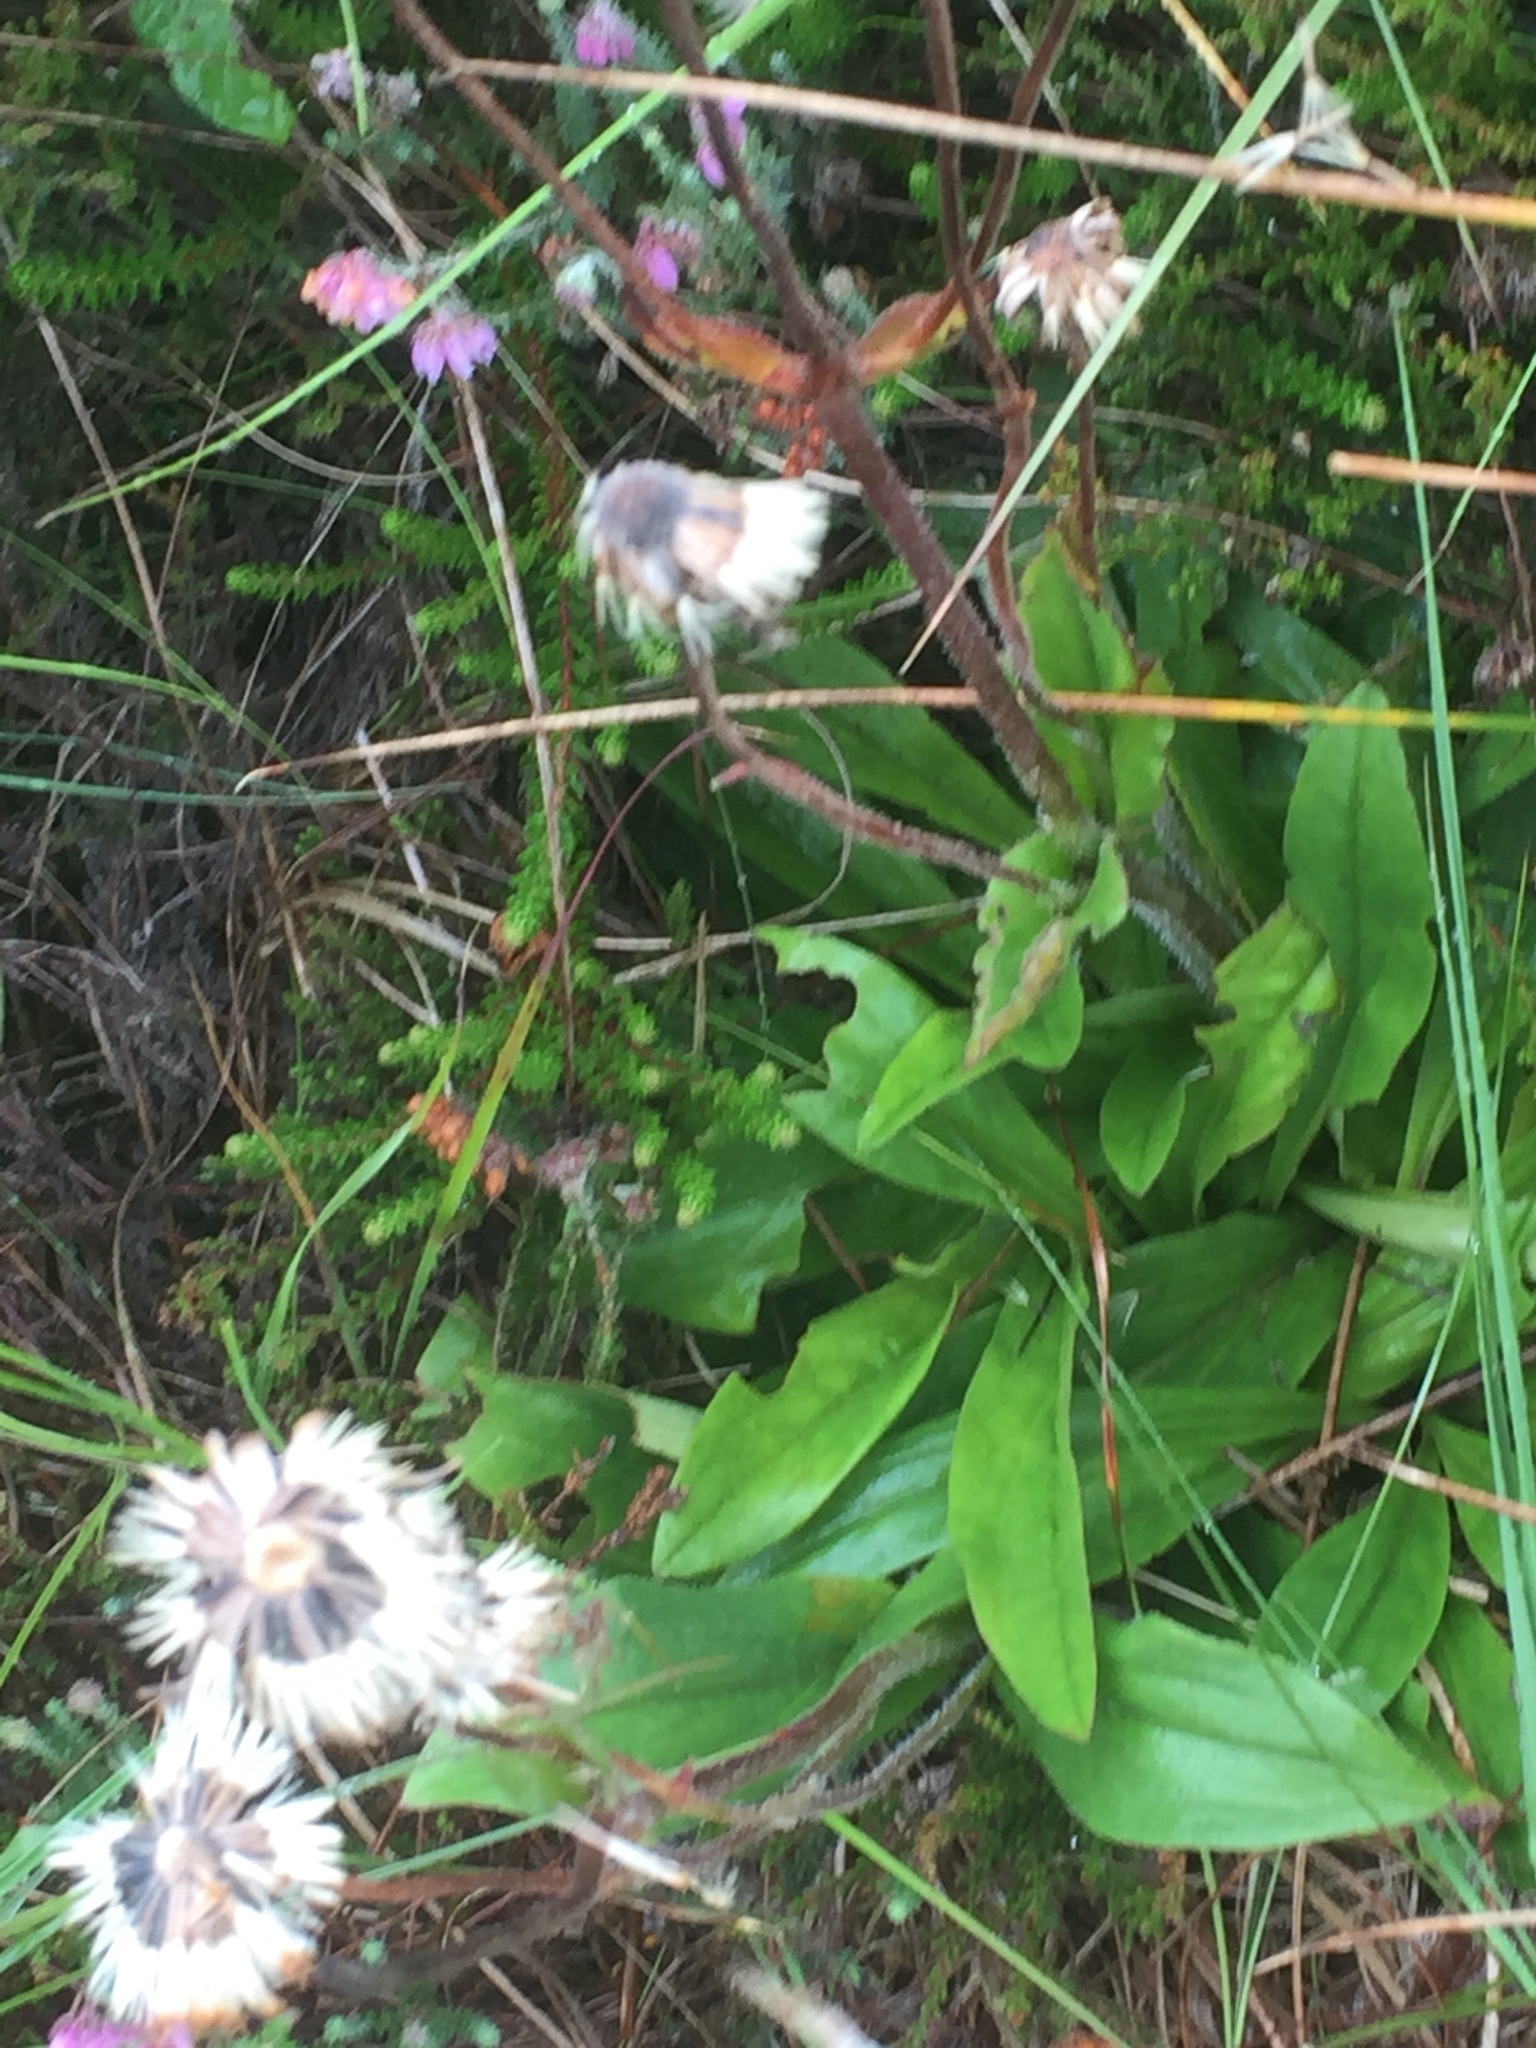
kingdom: Plantae
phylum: Tracheophyta
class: Magnoliopsida
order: Asterales
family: Asteraceae
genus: Arnica
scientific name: Arnica montana
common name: Leopard's bane
